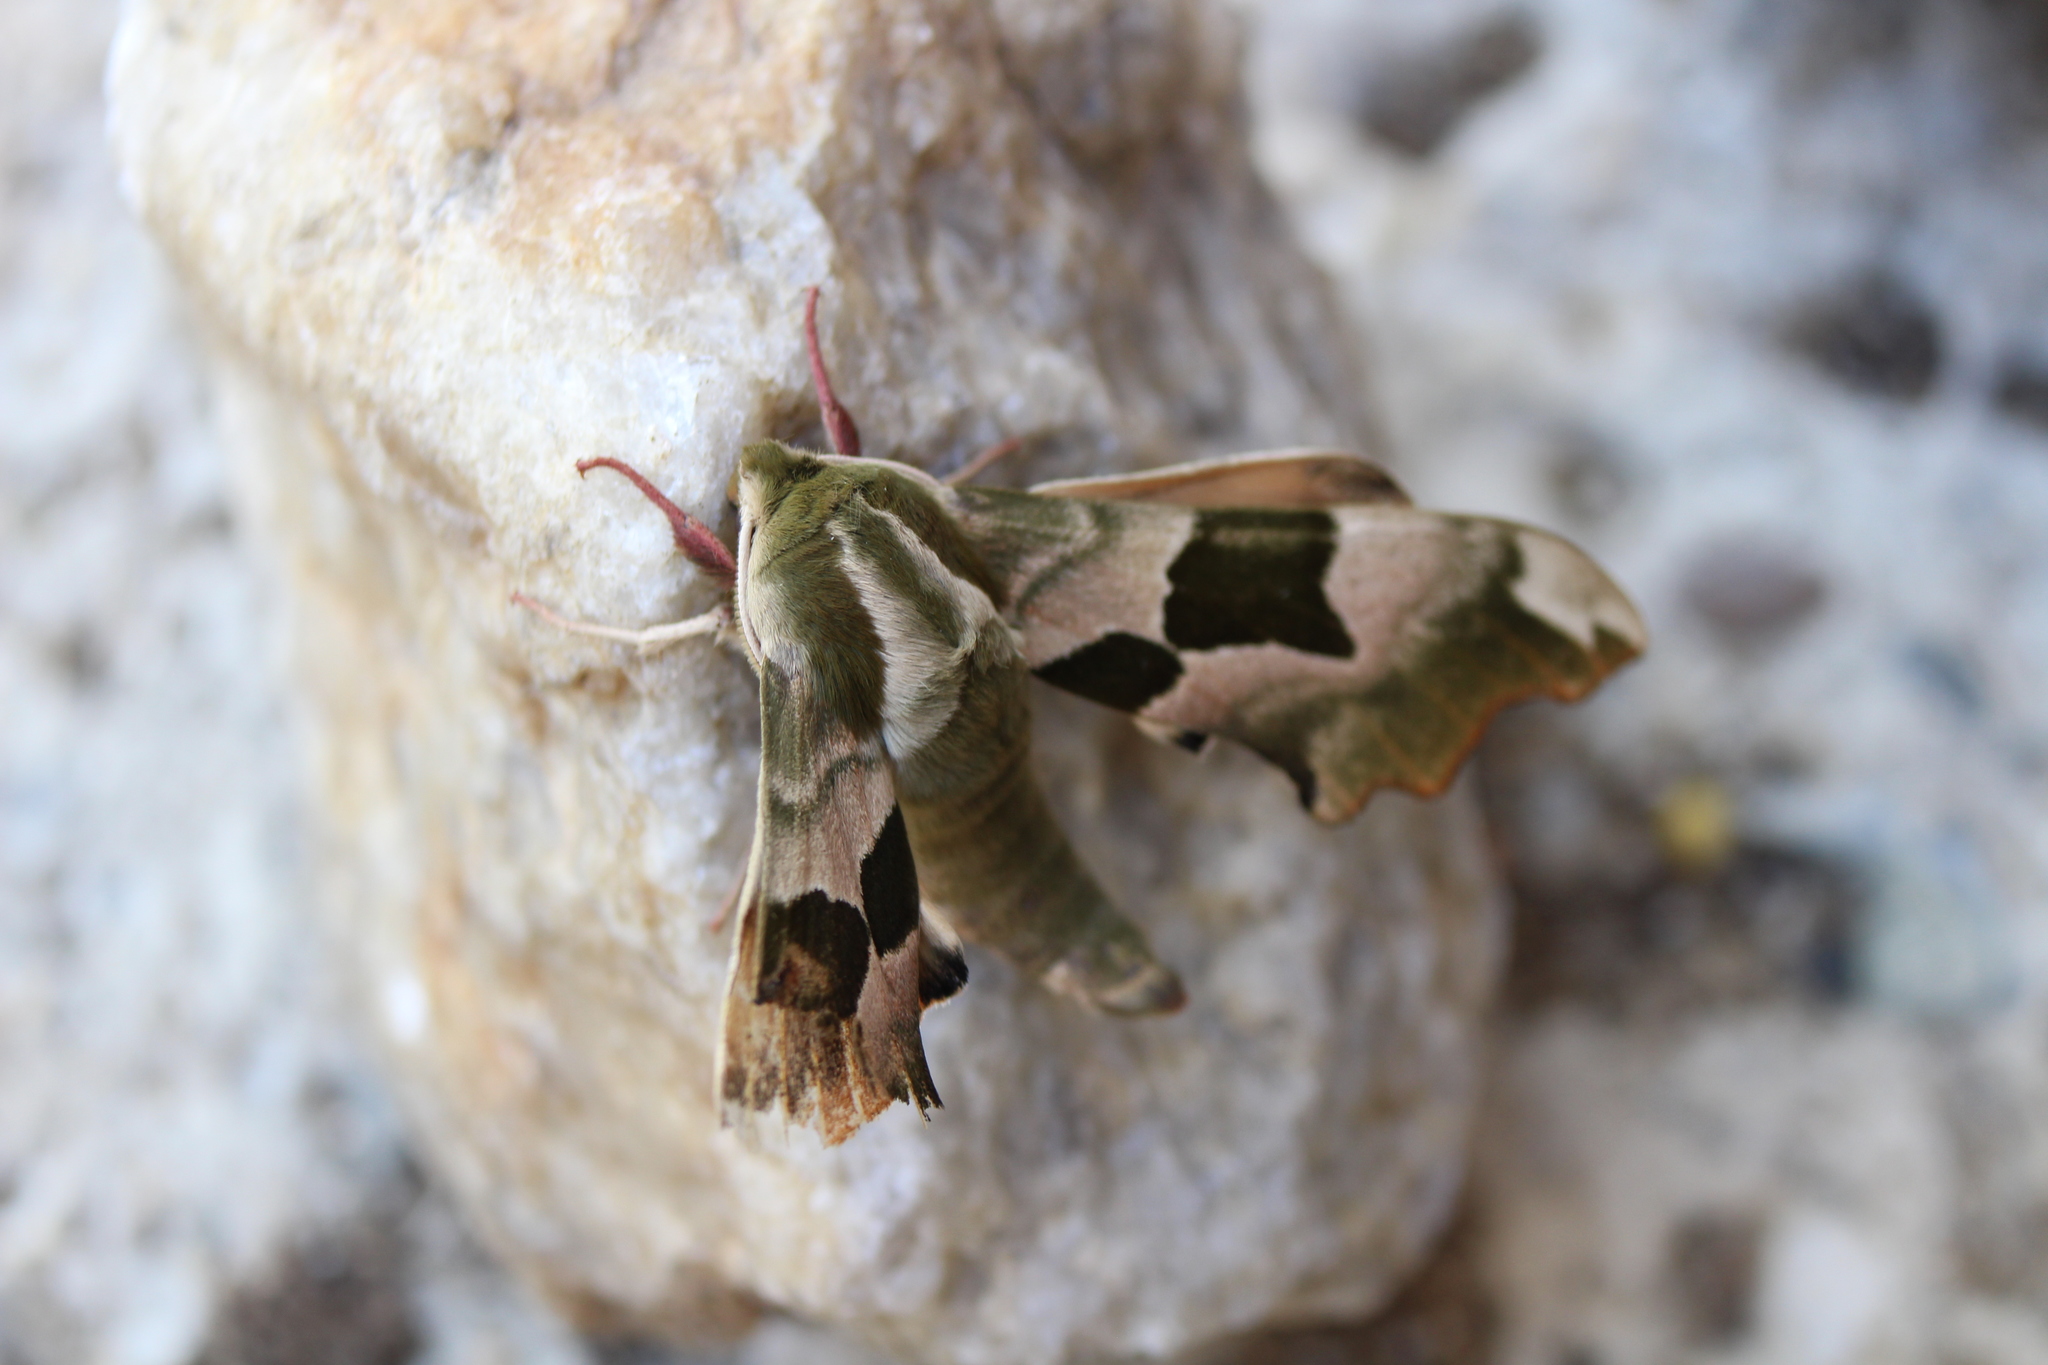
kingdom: Animalia
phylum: Arthropoda
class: Insecta
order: Lepidoptera
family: Sphingidae
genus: Mimas
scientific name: Mimas tiliae
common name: Lime hawk-moth
